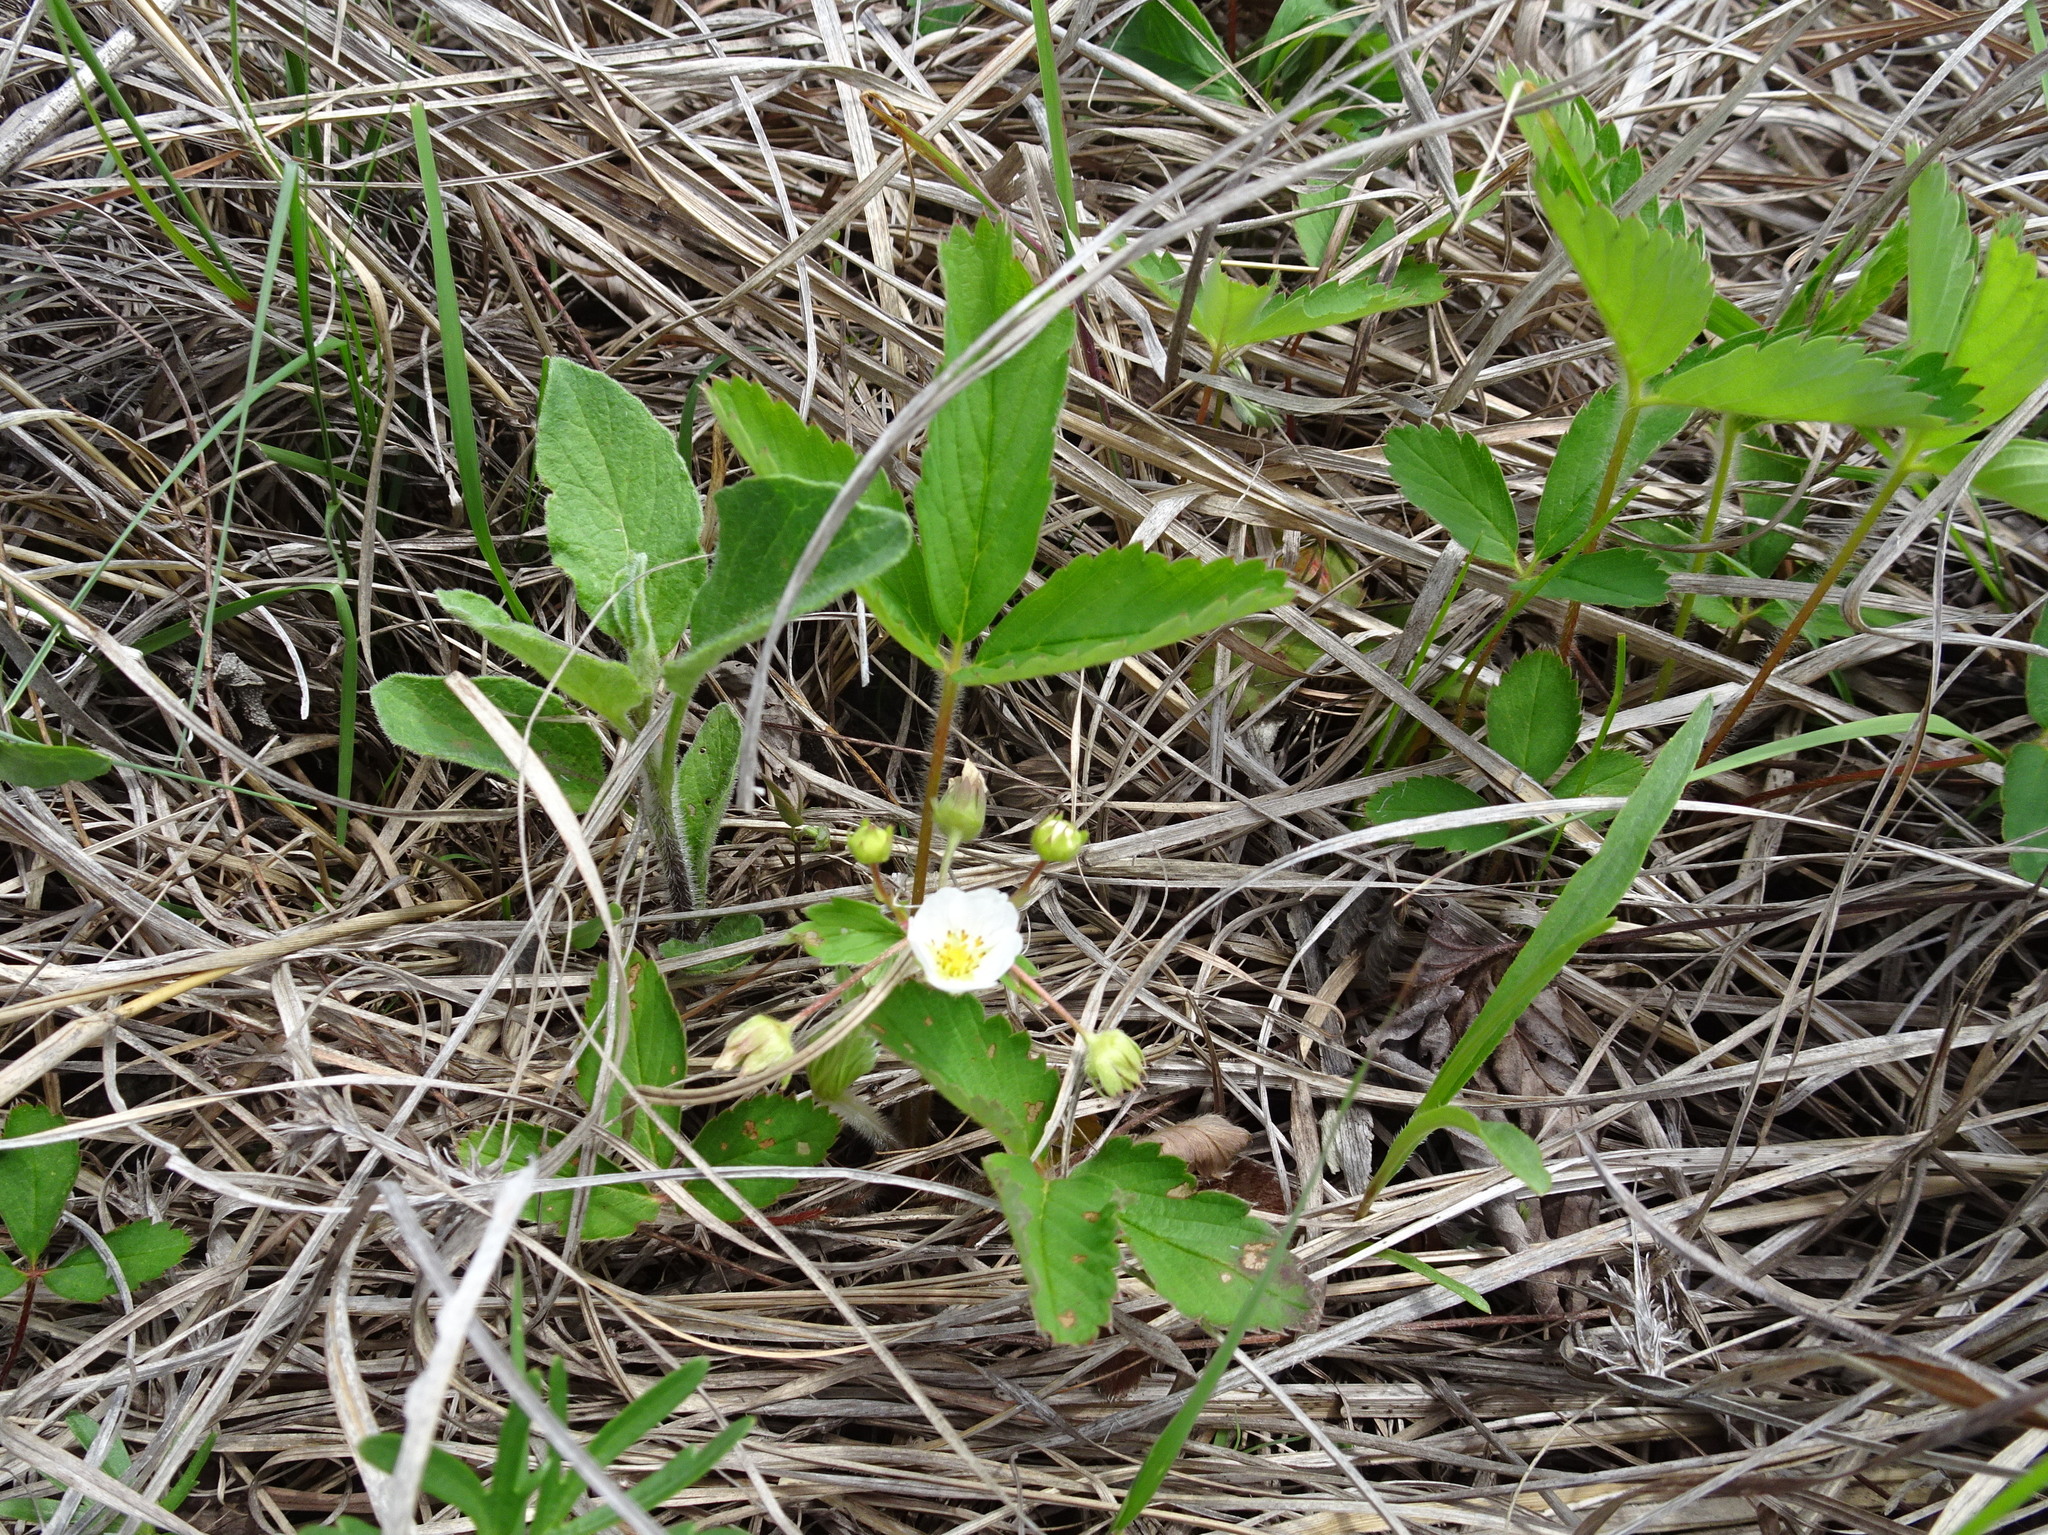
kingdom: Plantae
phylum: Tracheophyta
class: Magnoliopsida
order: Rosales
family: Rosaceae
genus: Fragaria
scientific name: Fragaria virginiana
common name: Thickleaved wild strawberry
